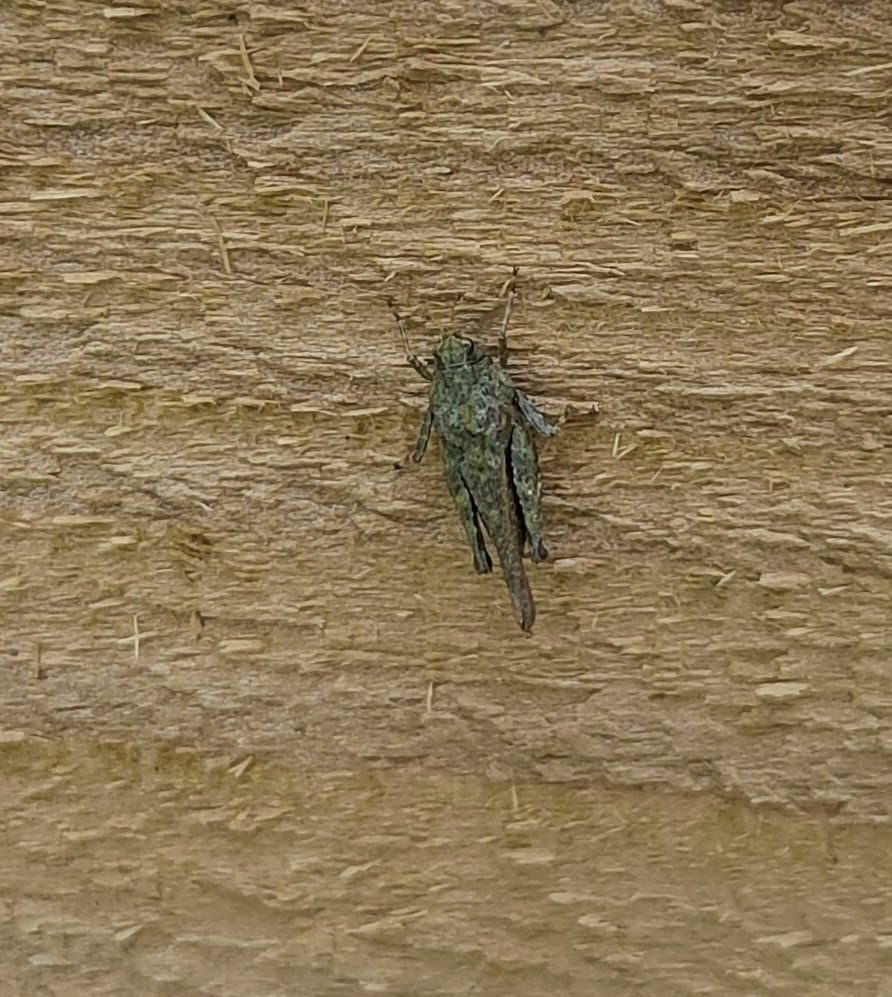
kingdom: Animalia
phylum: Arthropoda
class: Insecta
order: Orthoptera
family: Tetrigidae
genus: Tetrix
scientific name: Tetrix subulata
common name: Slender ground-hopper
